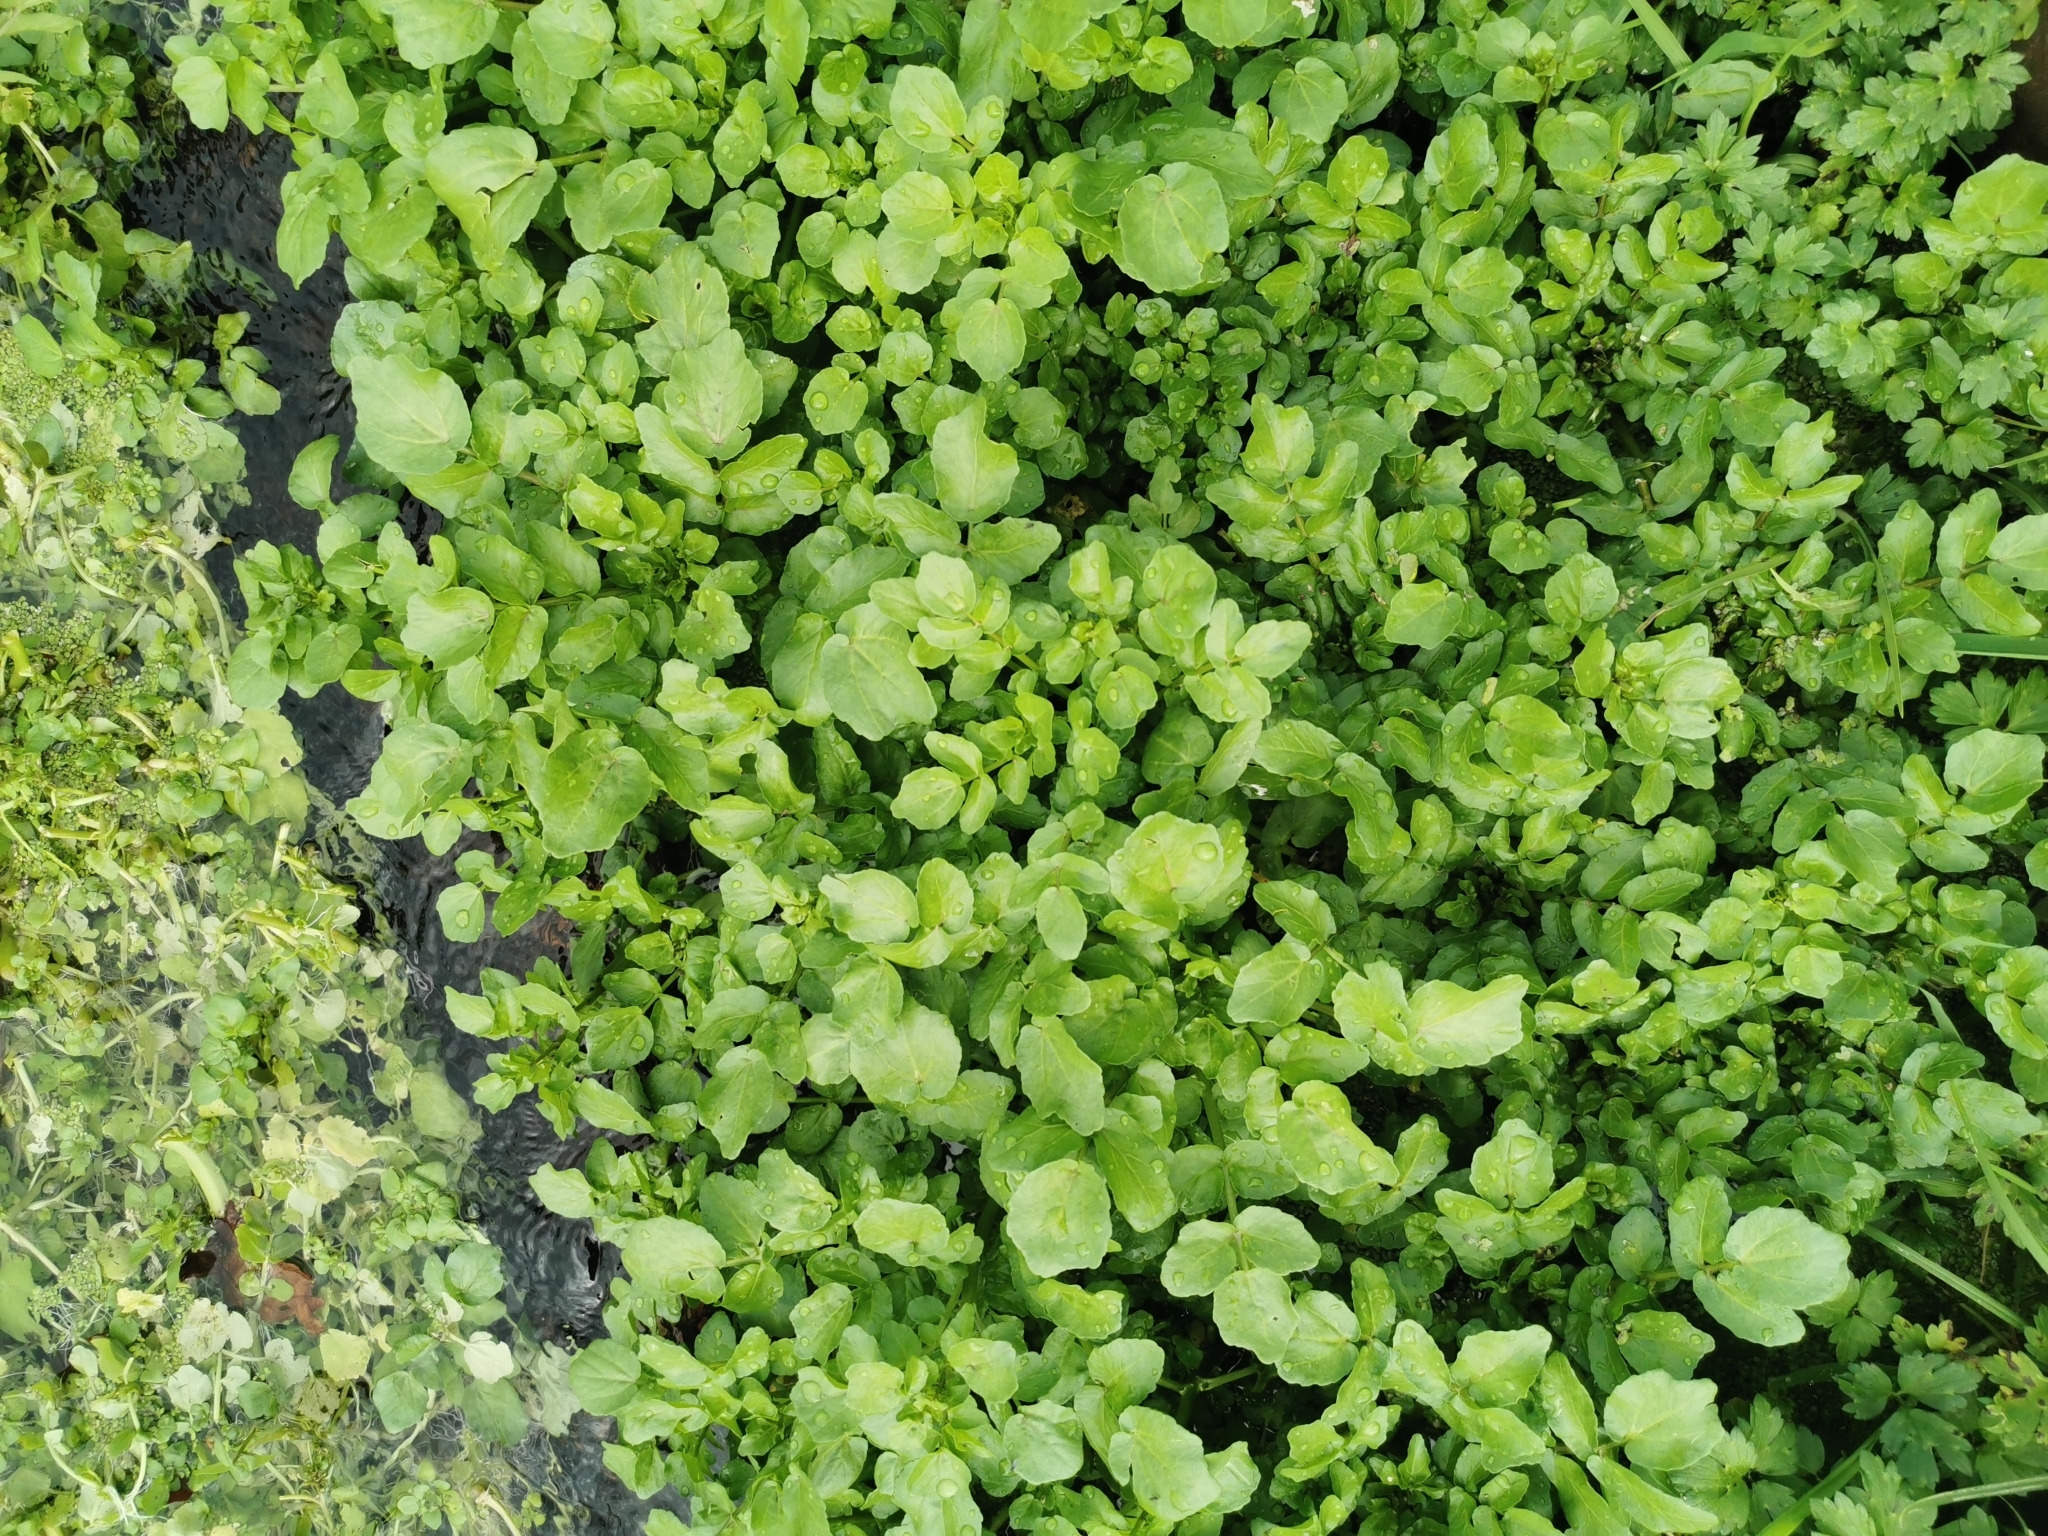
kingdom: Plantae
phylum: Tracheophyta
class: Magnoliopsida
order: Brassicales
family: Brassicaceae
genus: Nasturtium
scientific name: Nasturtium officinale
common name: Watercress
